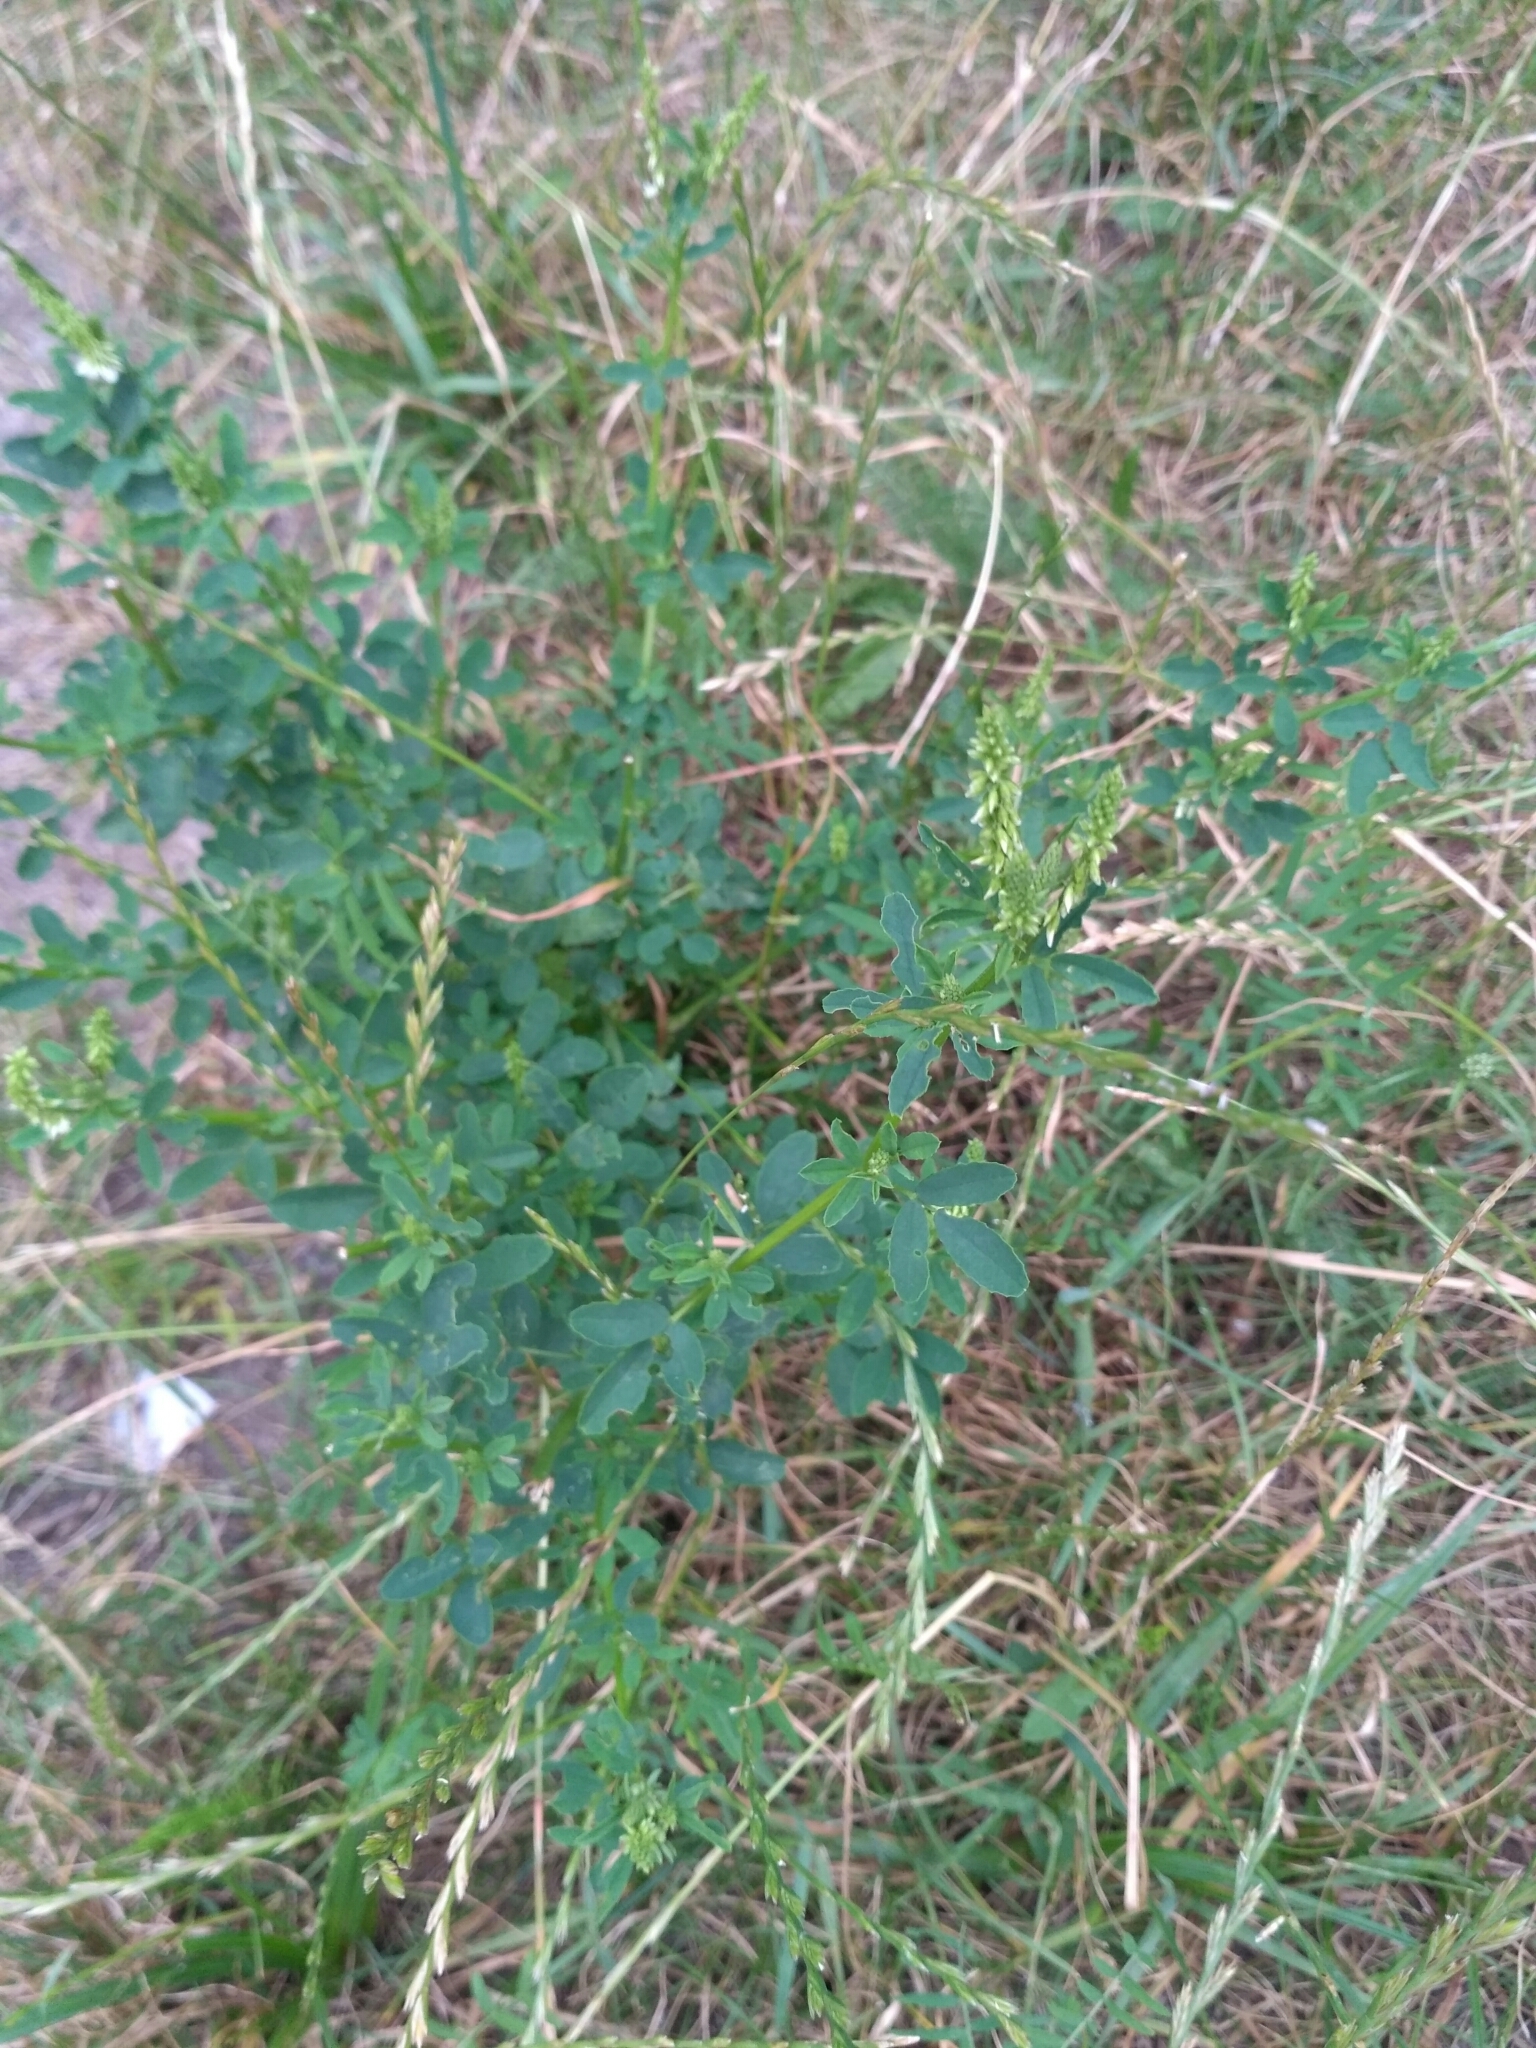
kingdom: Plantae
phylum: Tracheophyta
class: Magnoliopsida
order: Fabales
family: Fabaceae
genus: Melilotus
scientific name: Melilotus albus
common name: White melilot
